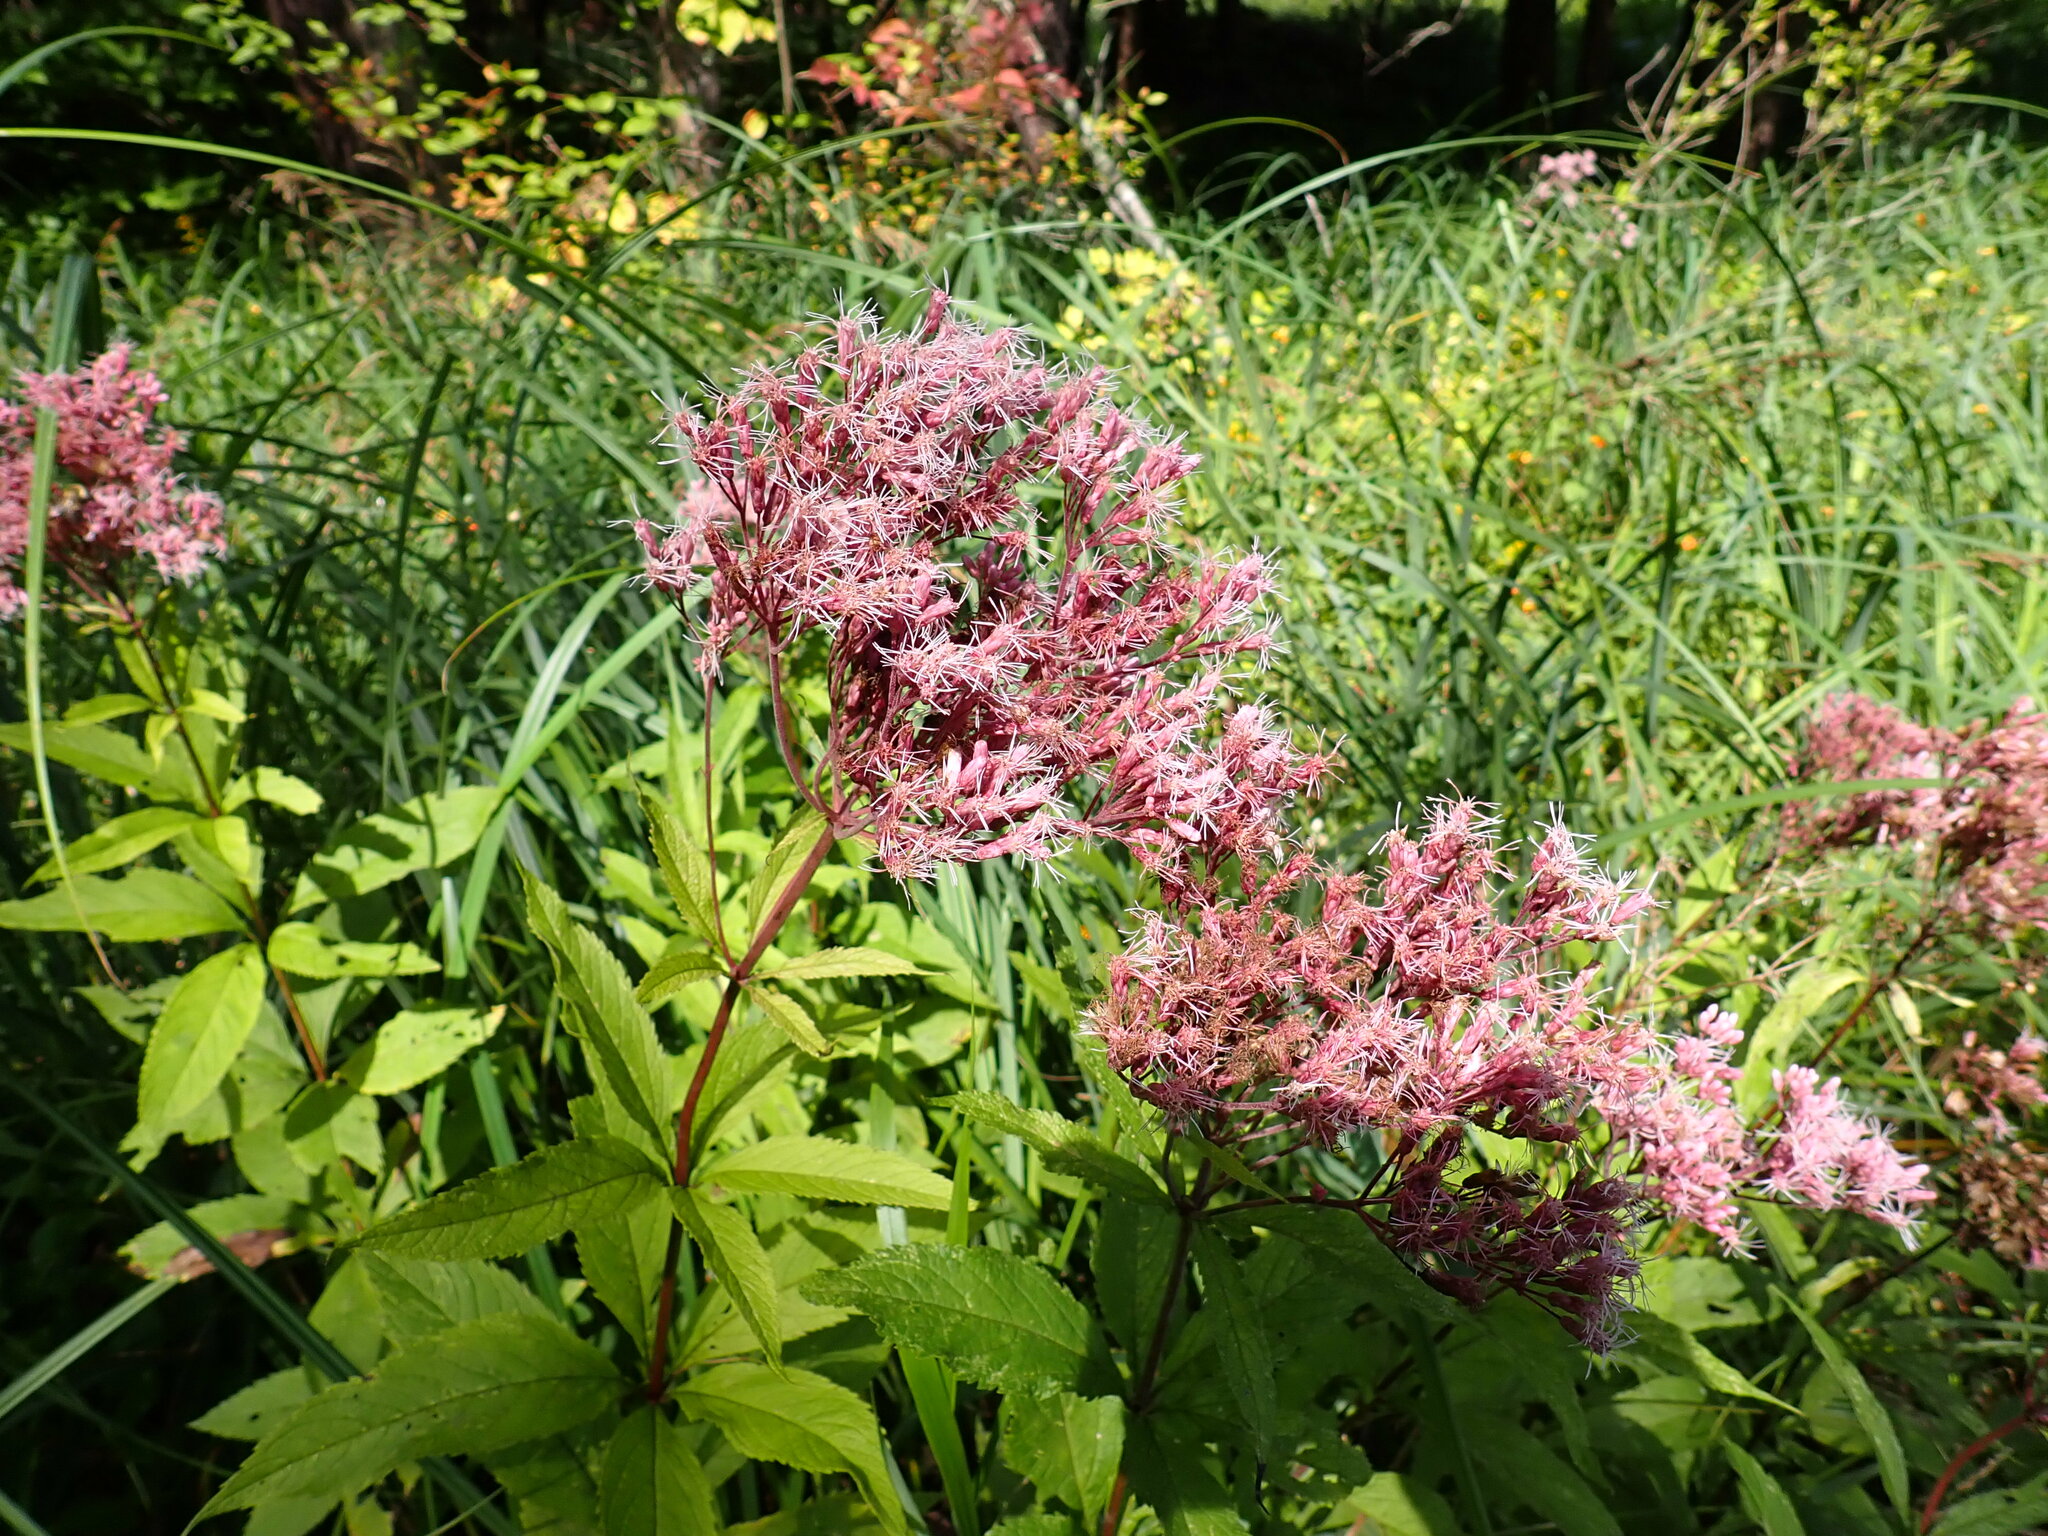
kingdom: Plantae
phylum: Tracheophyta
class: Magnoliopsida
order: Asterales
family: Asteraceae
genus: Eutrochium
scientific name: Eutrochium maculatum
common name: Spotted joe pye weed
